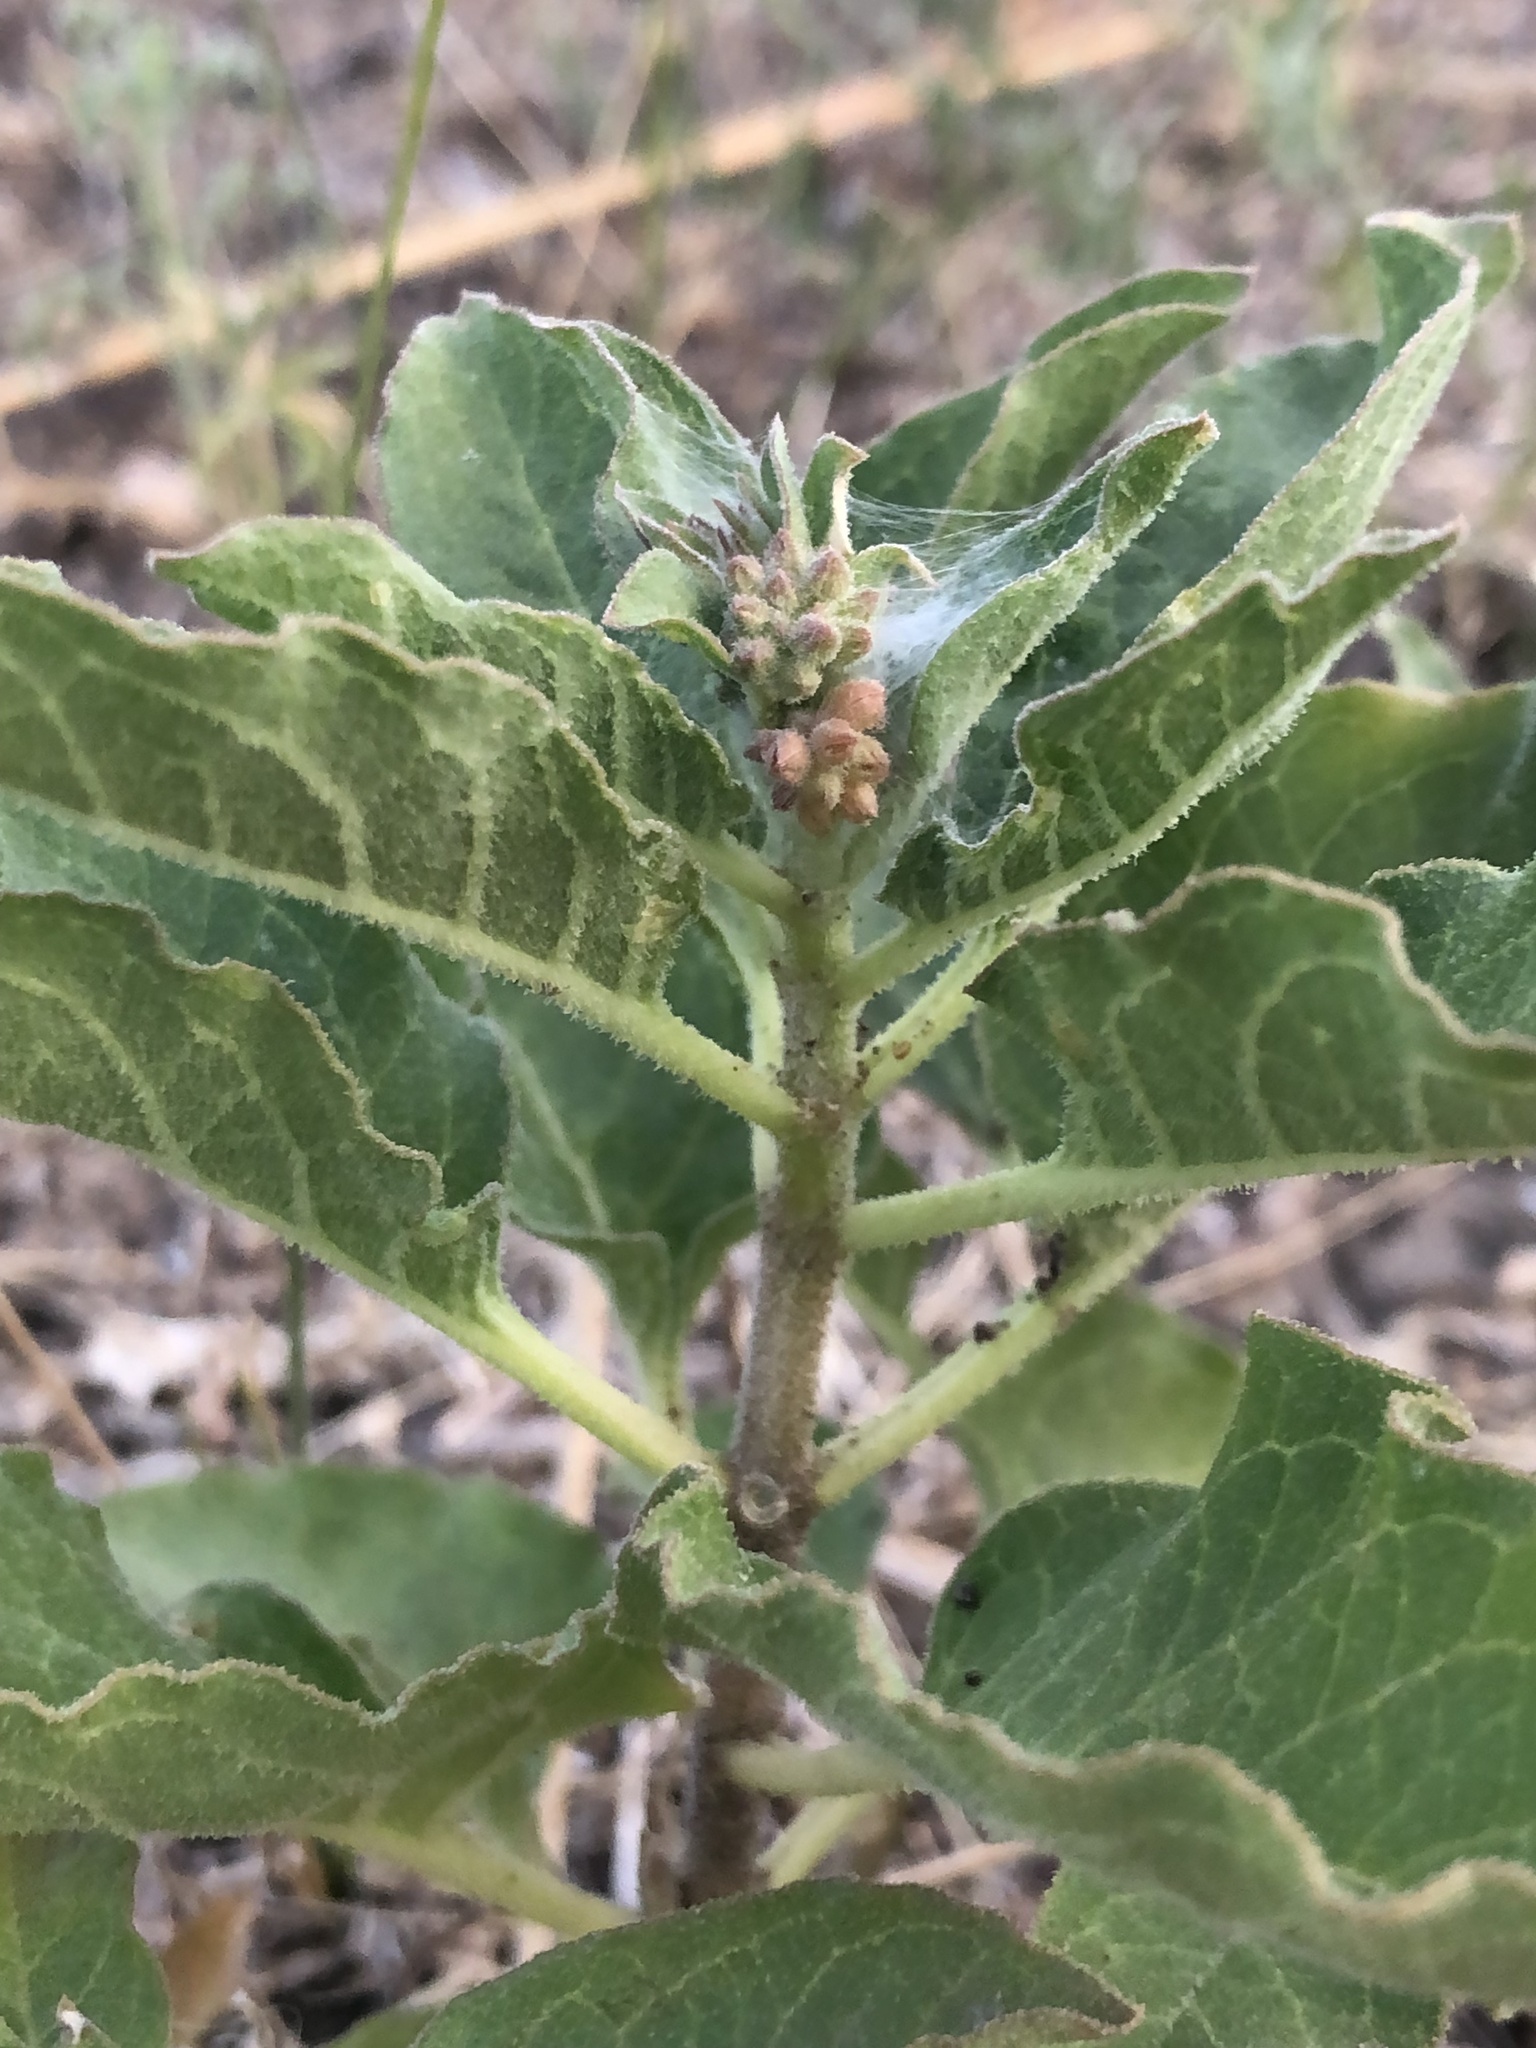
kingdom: Plantae
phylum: Tracheophyta
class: Magnoliopsida
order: Gentianales
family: Apocynaceae
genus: Asclepias
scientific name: Asclepias oenotheroides
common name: Zizotes milkweed
